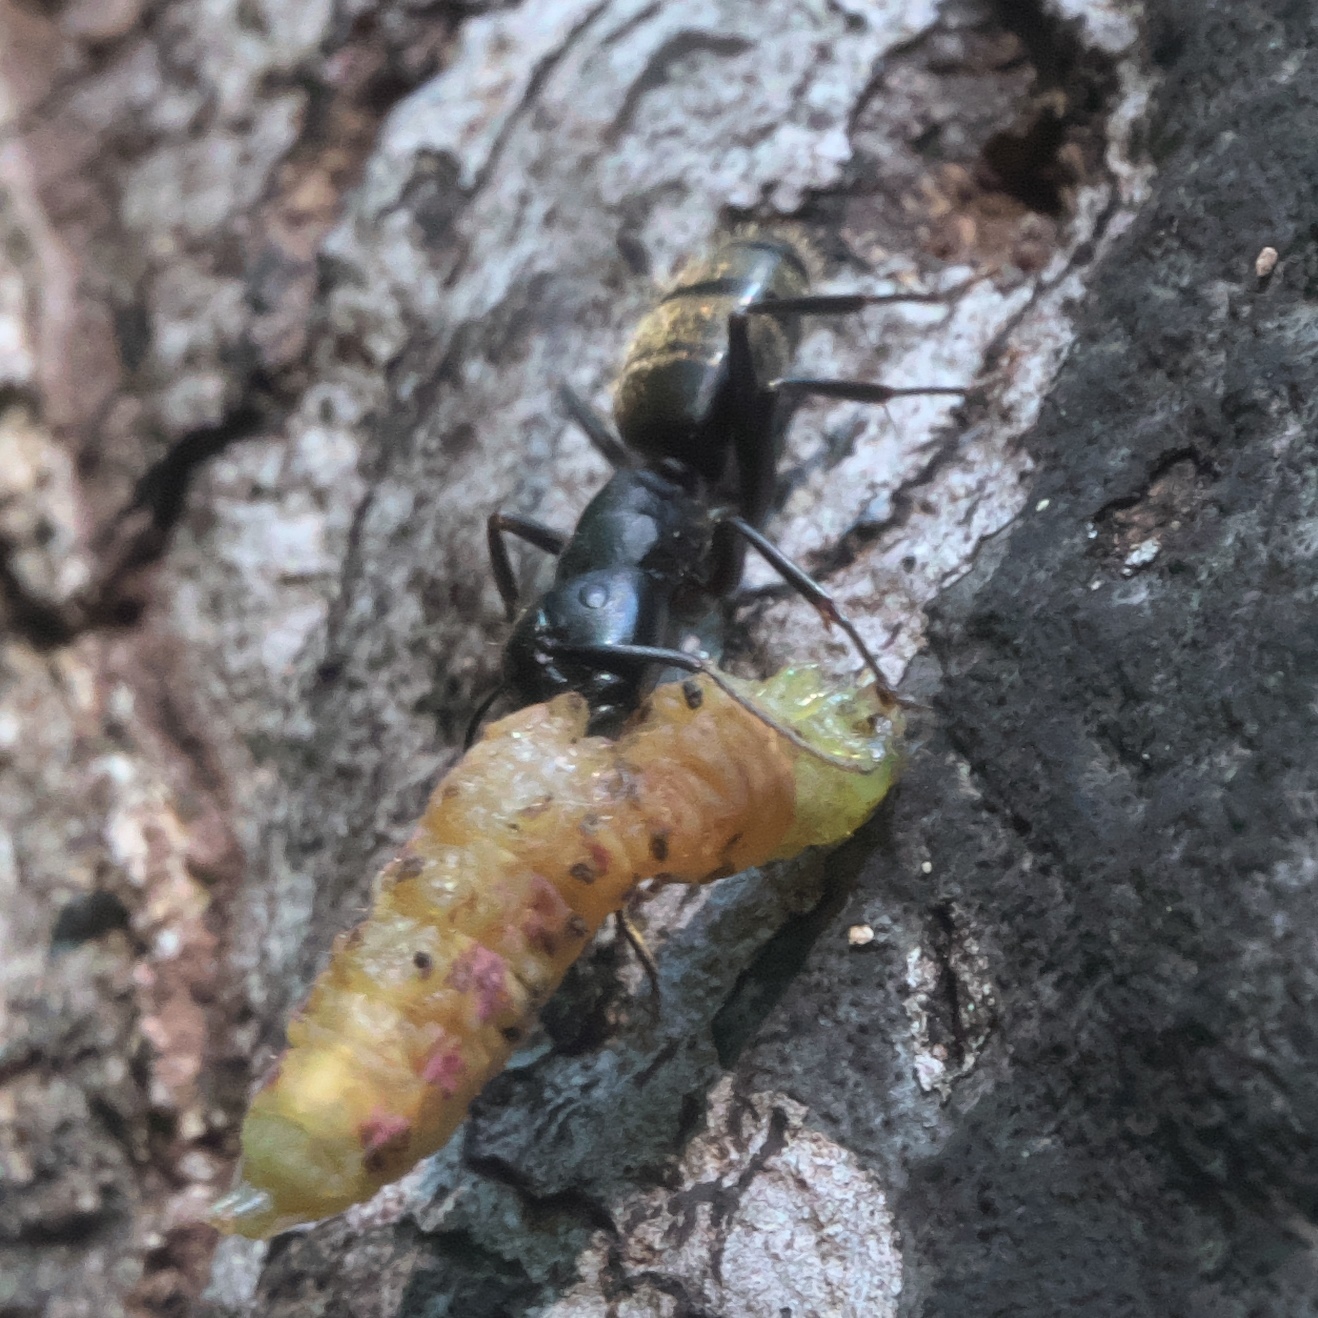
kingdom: Animalia
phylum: Arthropoda
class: Insecta
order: Hymenoptera
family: Formicidae
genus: Camponotus
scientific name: Camponotus pennsylvanicus
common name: Black carpenter ant
